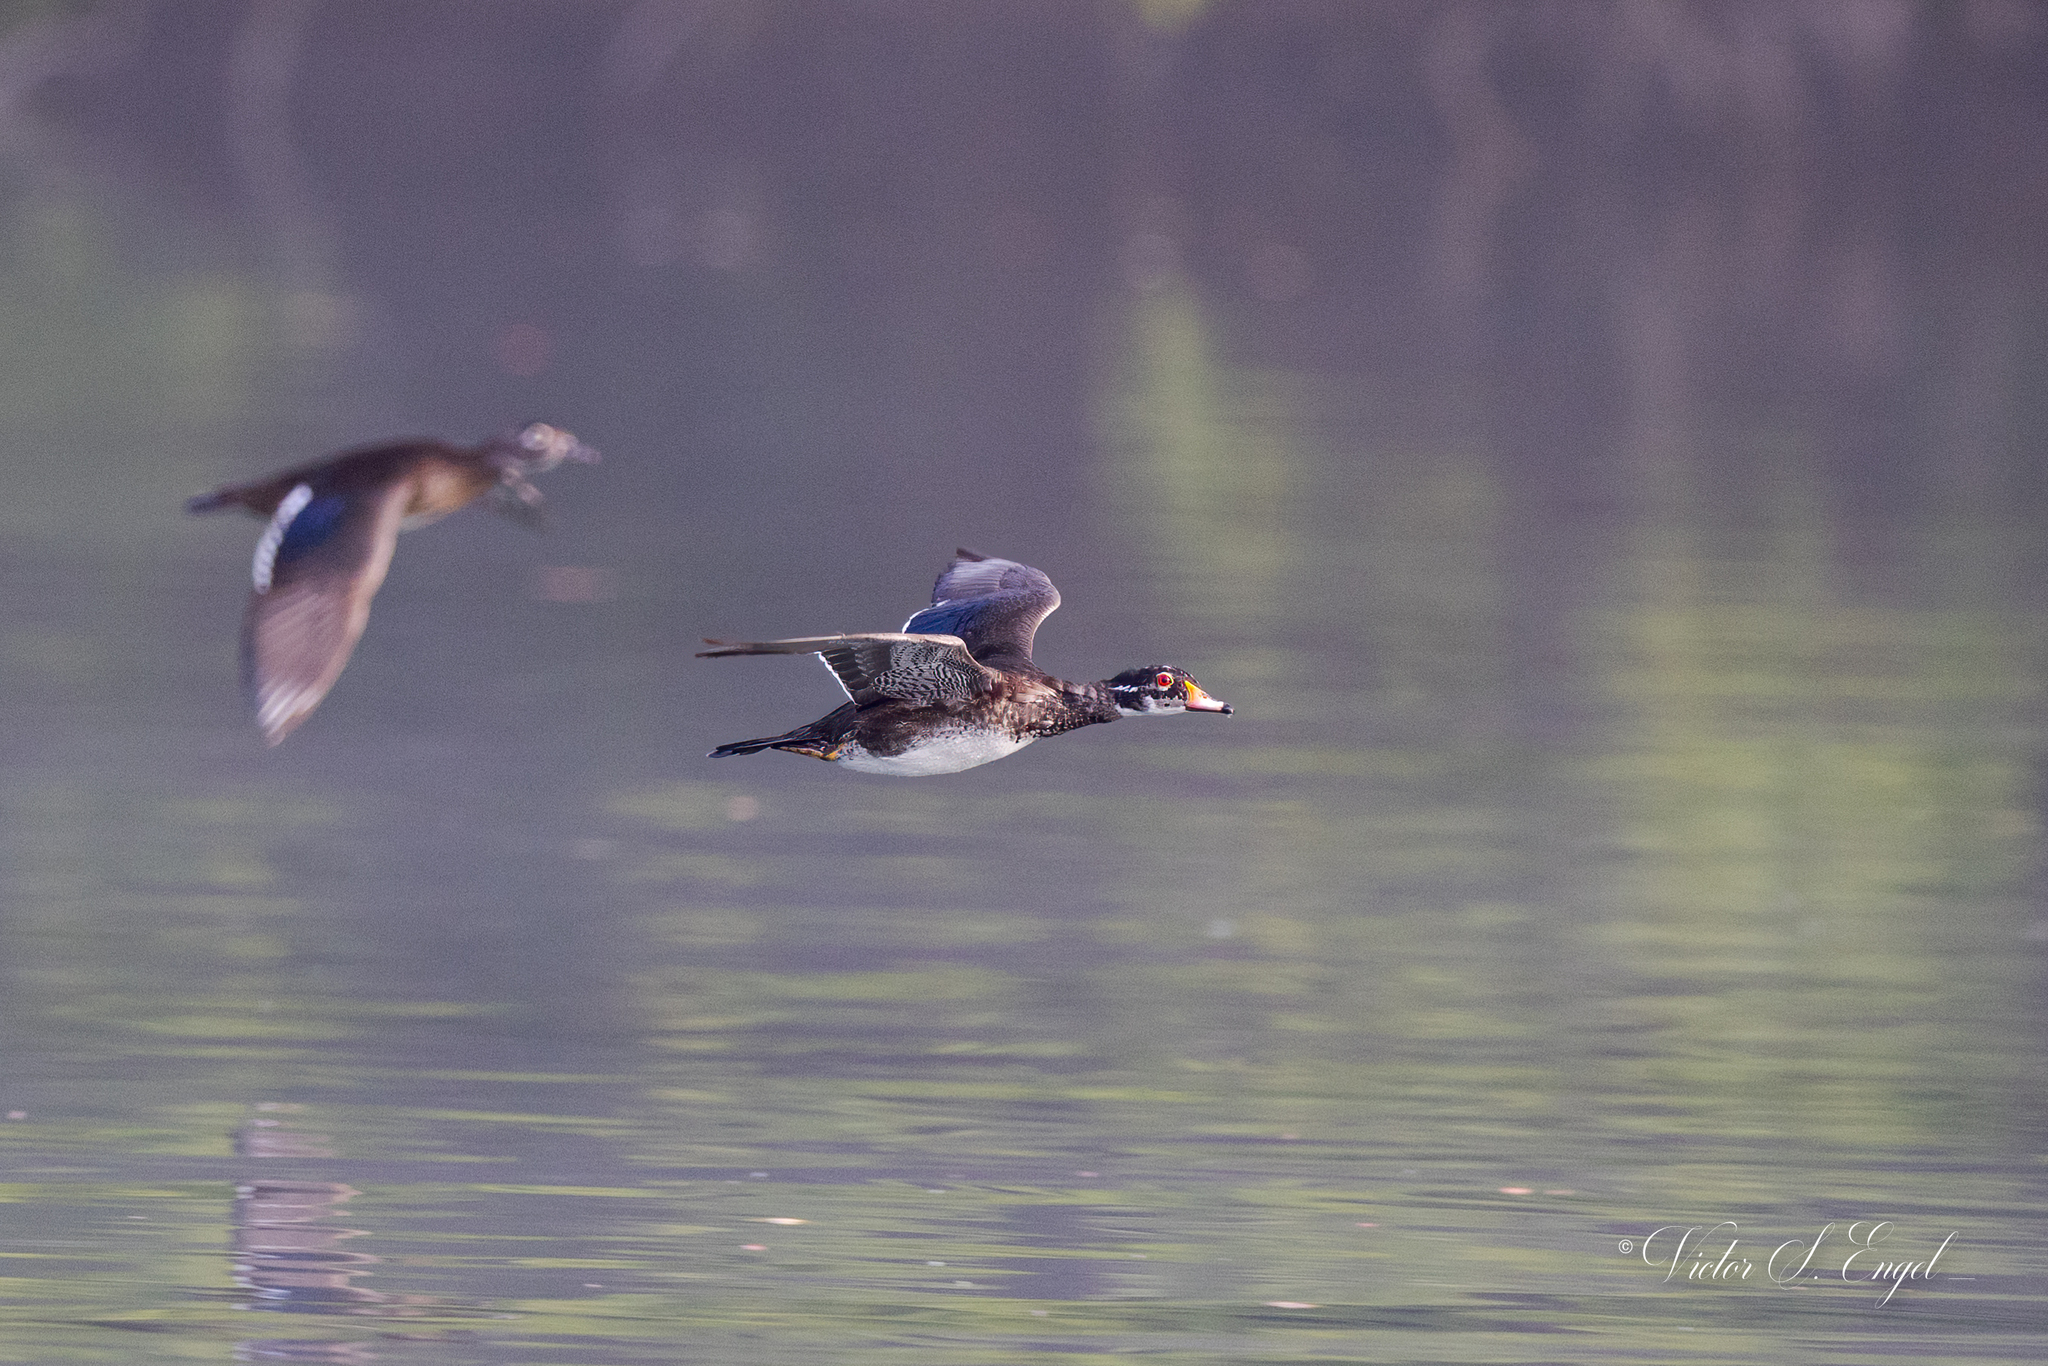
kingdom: Animalia
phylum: Chordata
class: Aves
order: Anseriformes
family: Anatidae
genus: Aix
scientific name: Aix sponsa
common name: Wood duck
